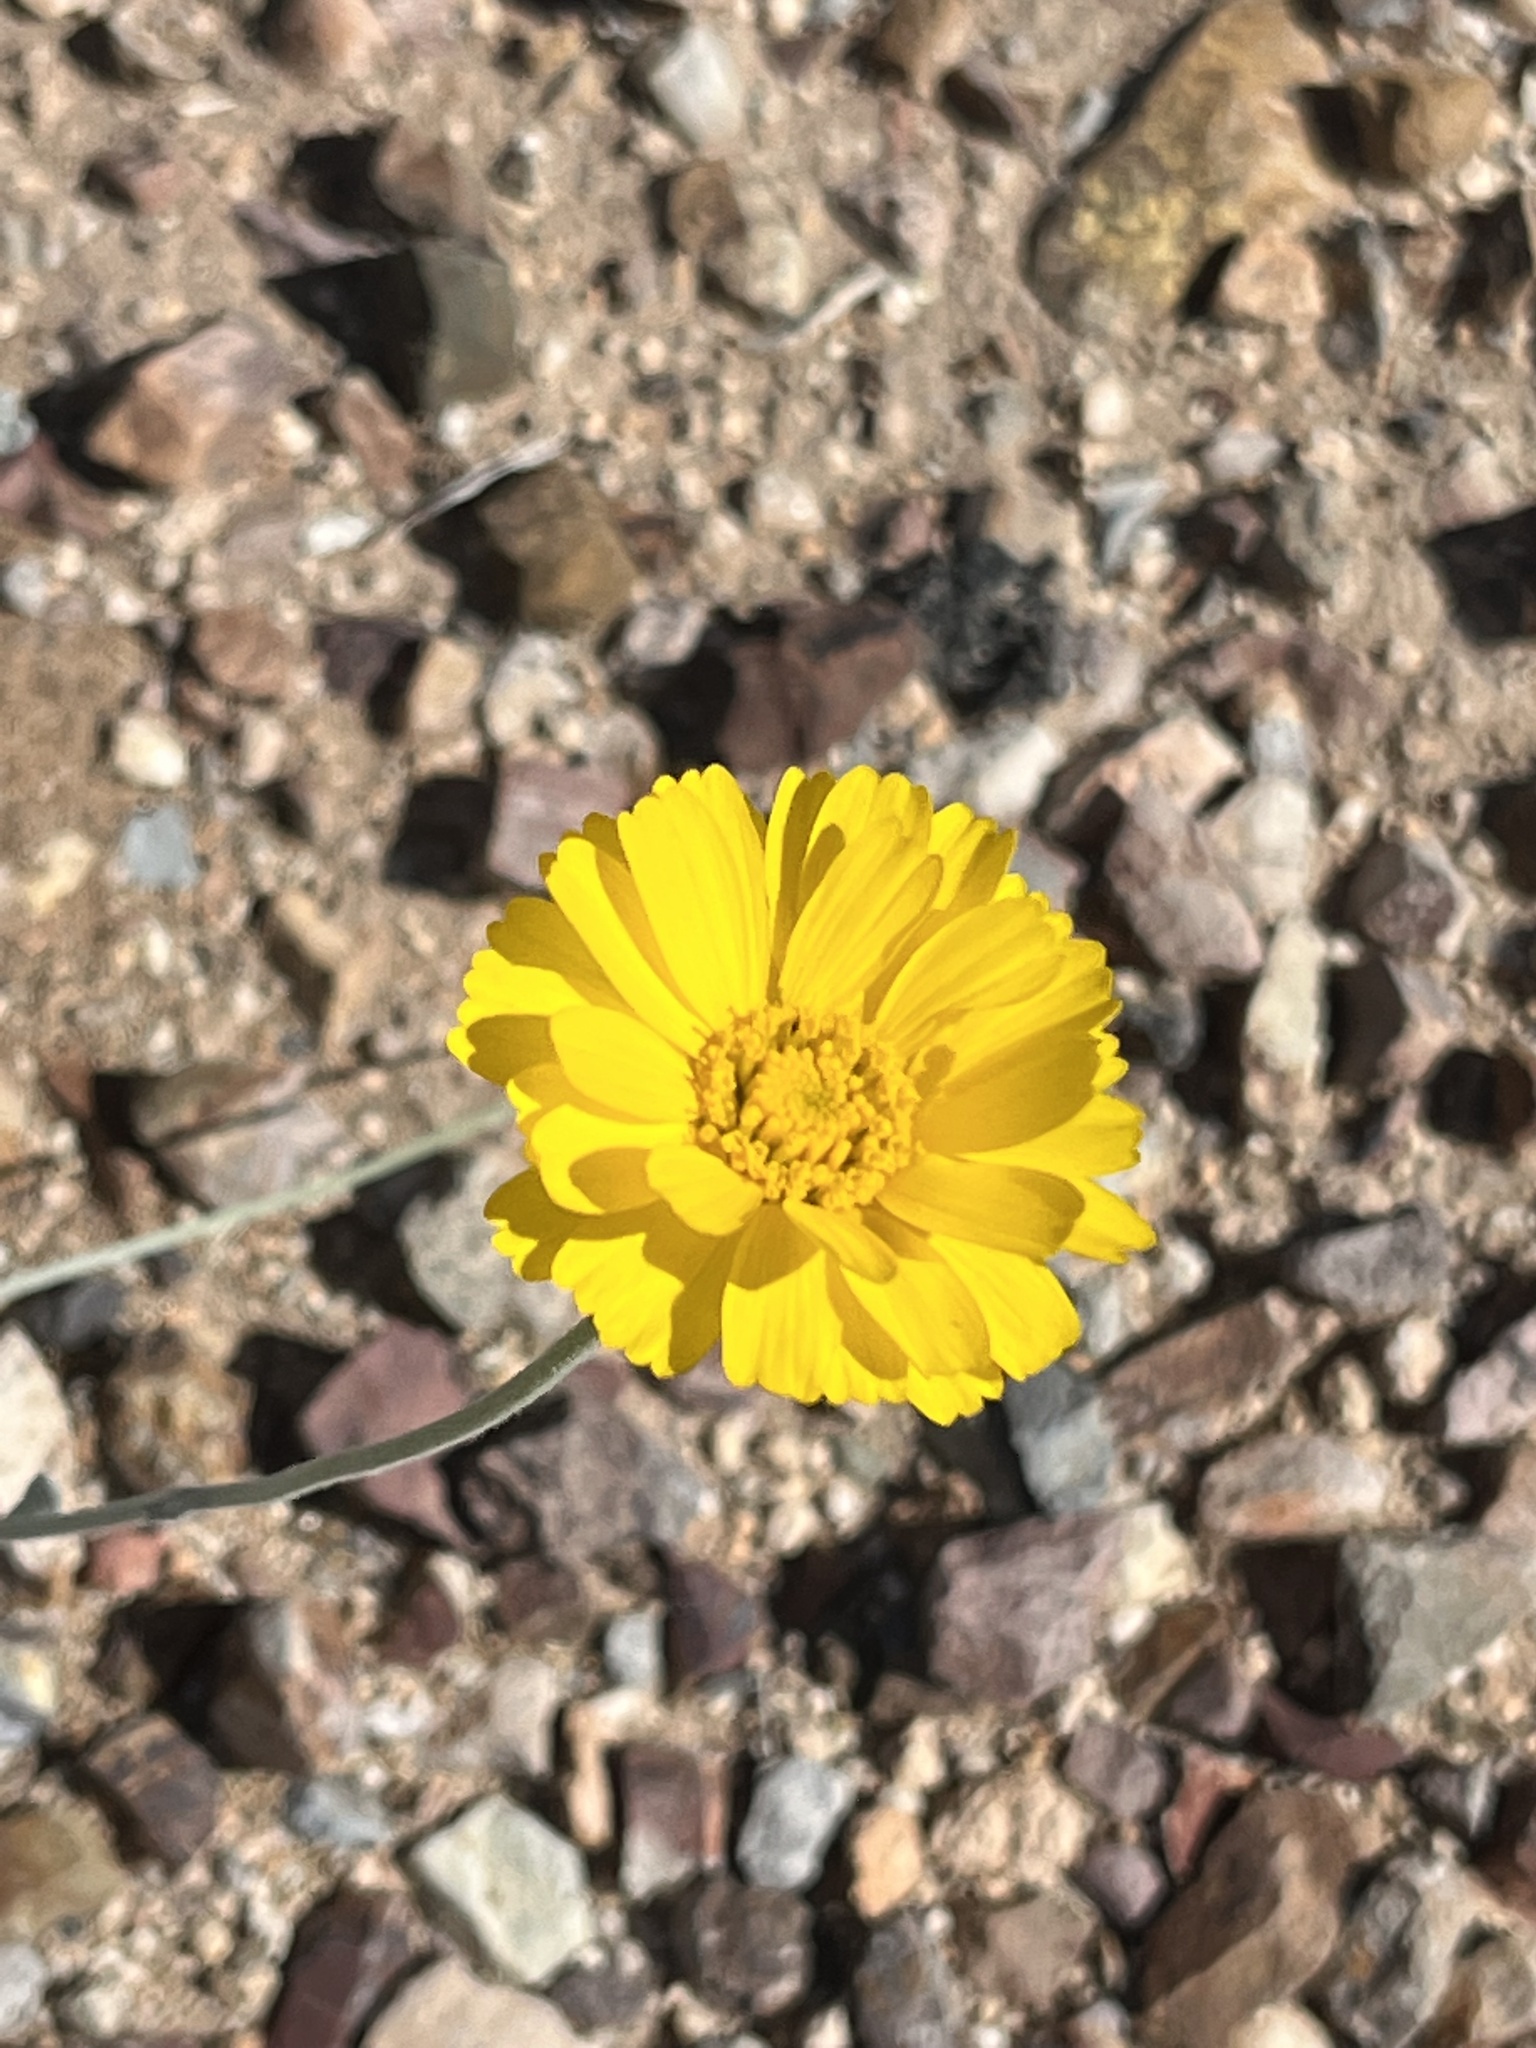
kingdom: Plantae
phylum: Tracheophyta
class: Magnoliopsida
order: Asterales
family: Asteraceae
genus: Baileya
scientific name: Baileya multiradiata
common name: Desert-marigold
